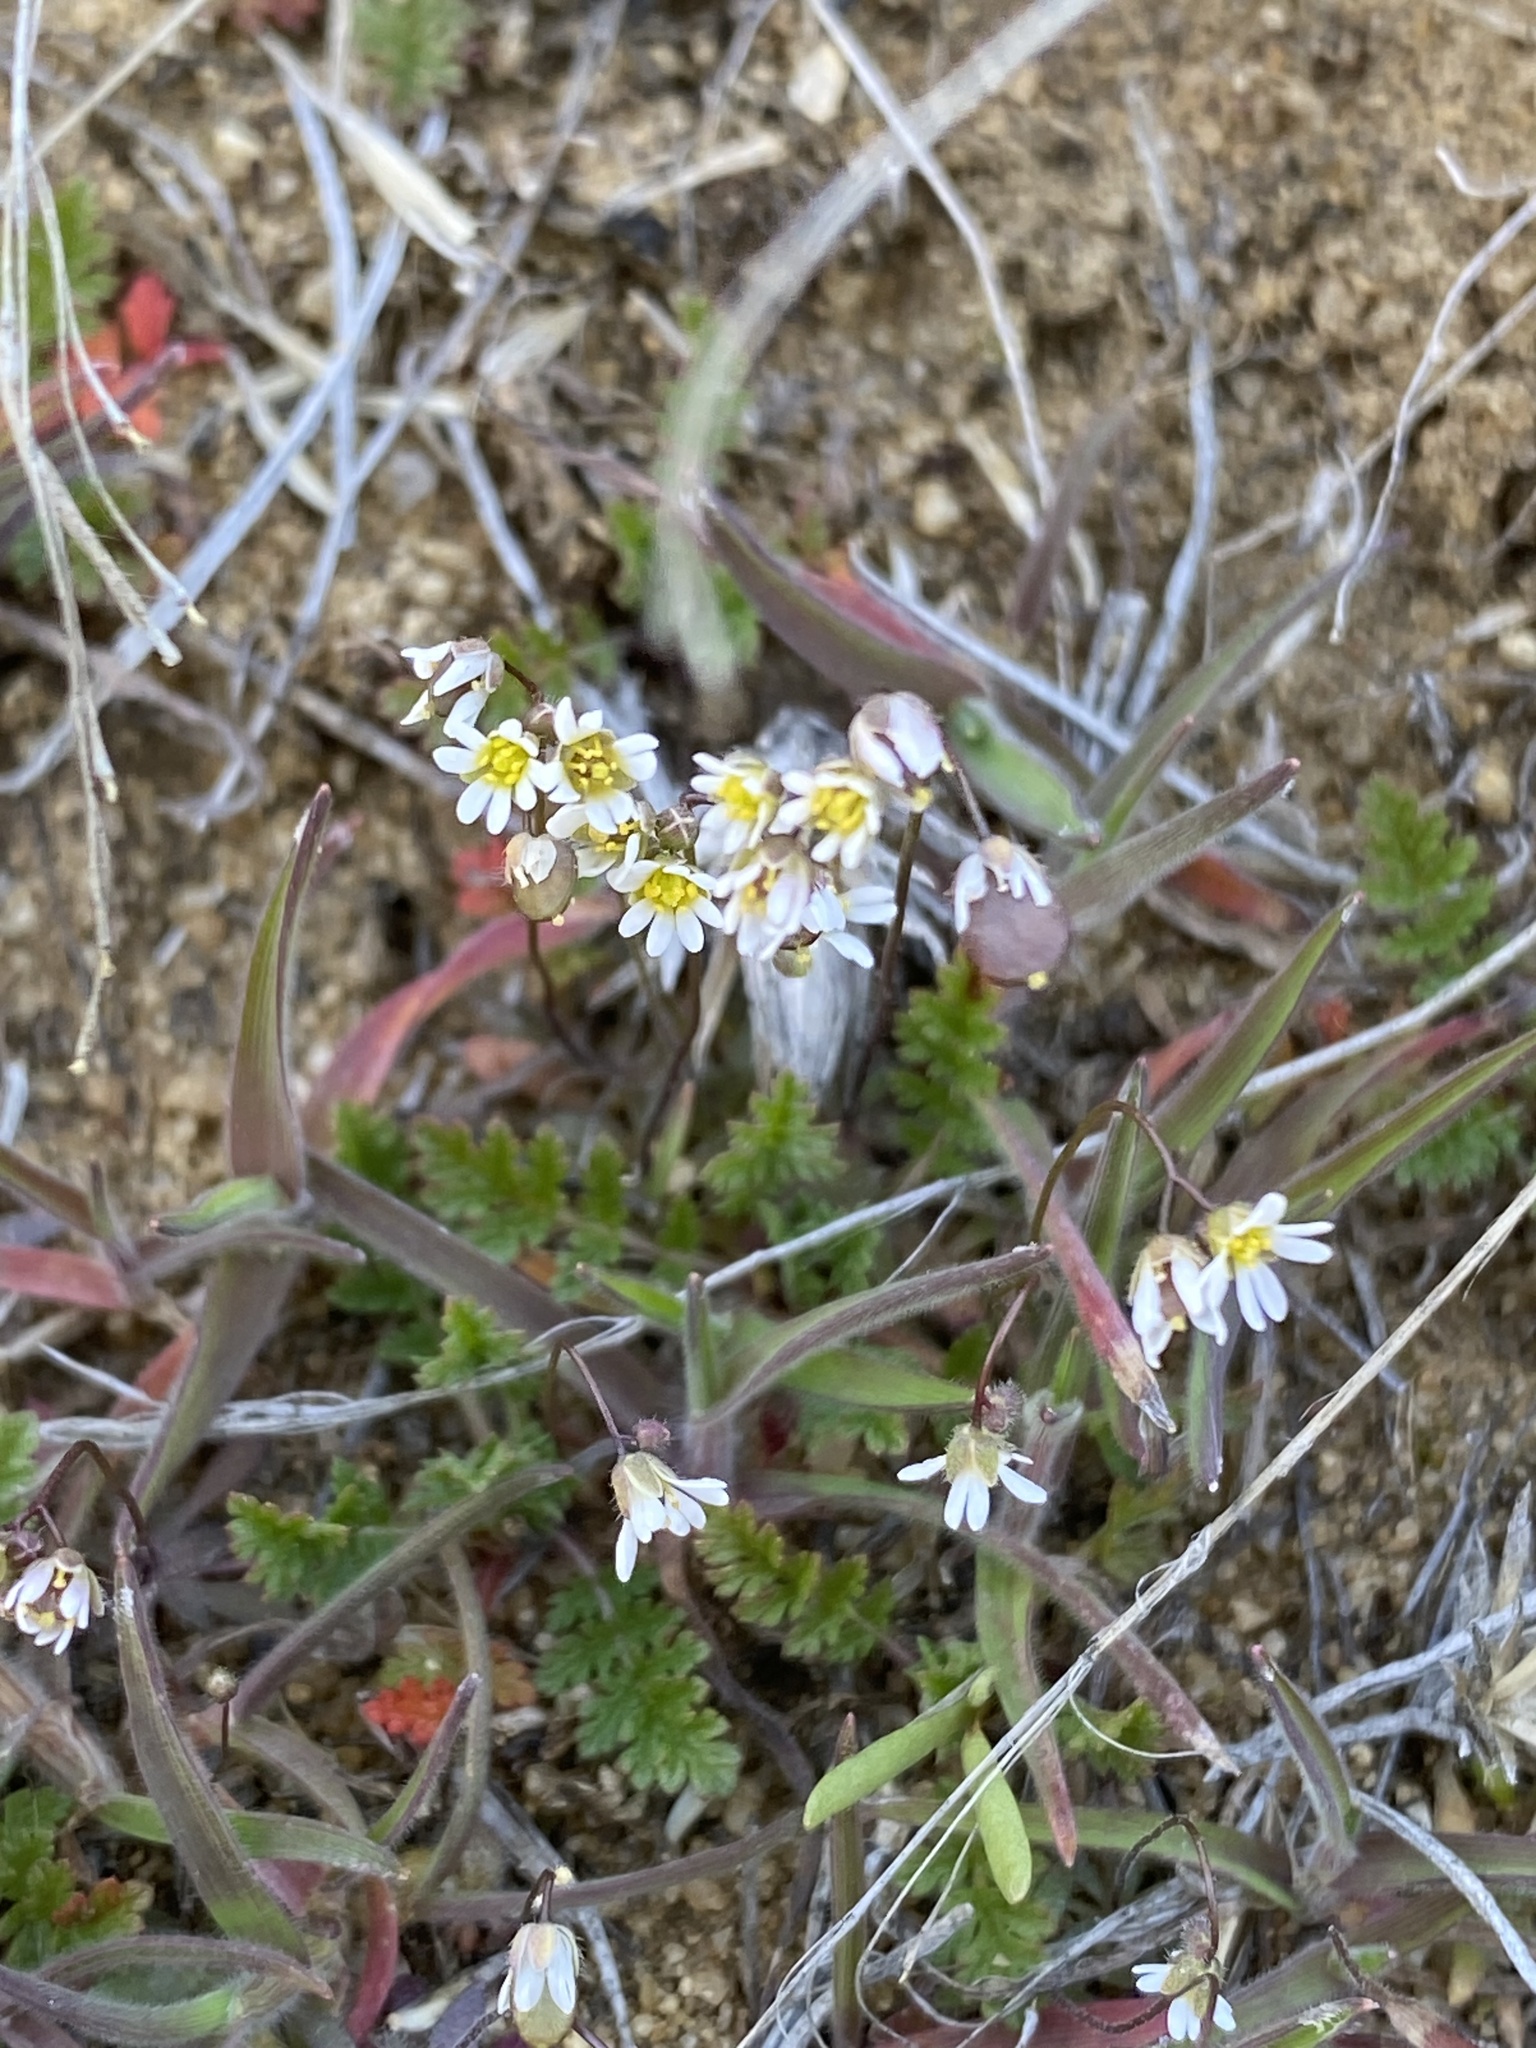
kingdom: Plantae
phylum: Tracheophyta
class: Magnoliopsida
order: Brassicales
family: Brassicaceae
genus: Draba
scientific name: Draba verna
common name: Spring draba
